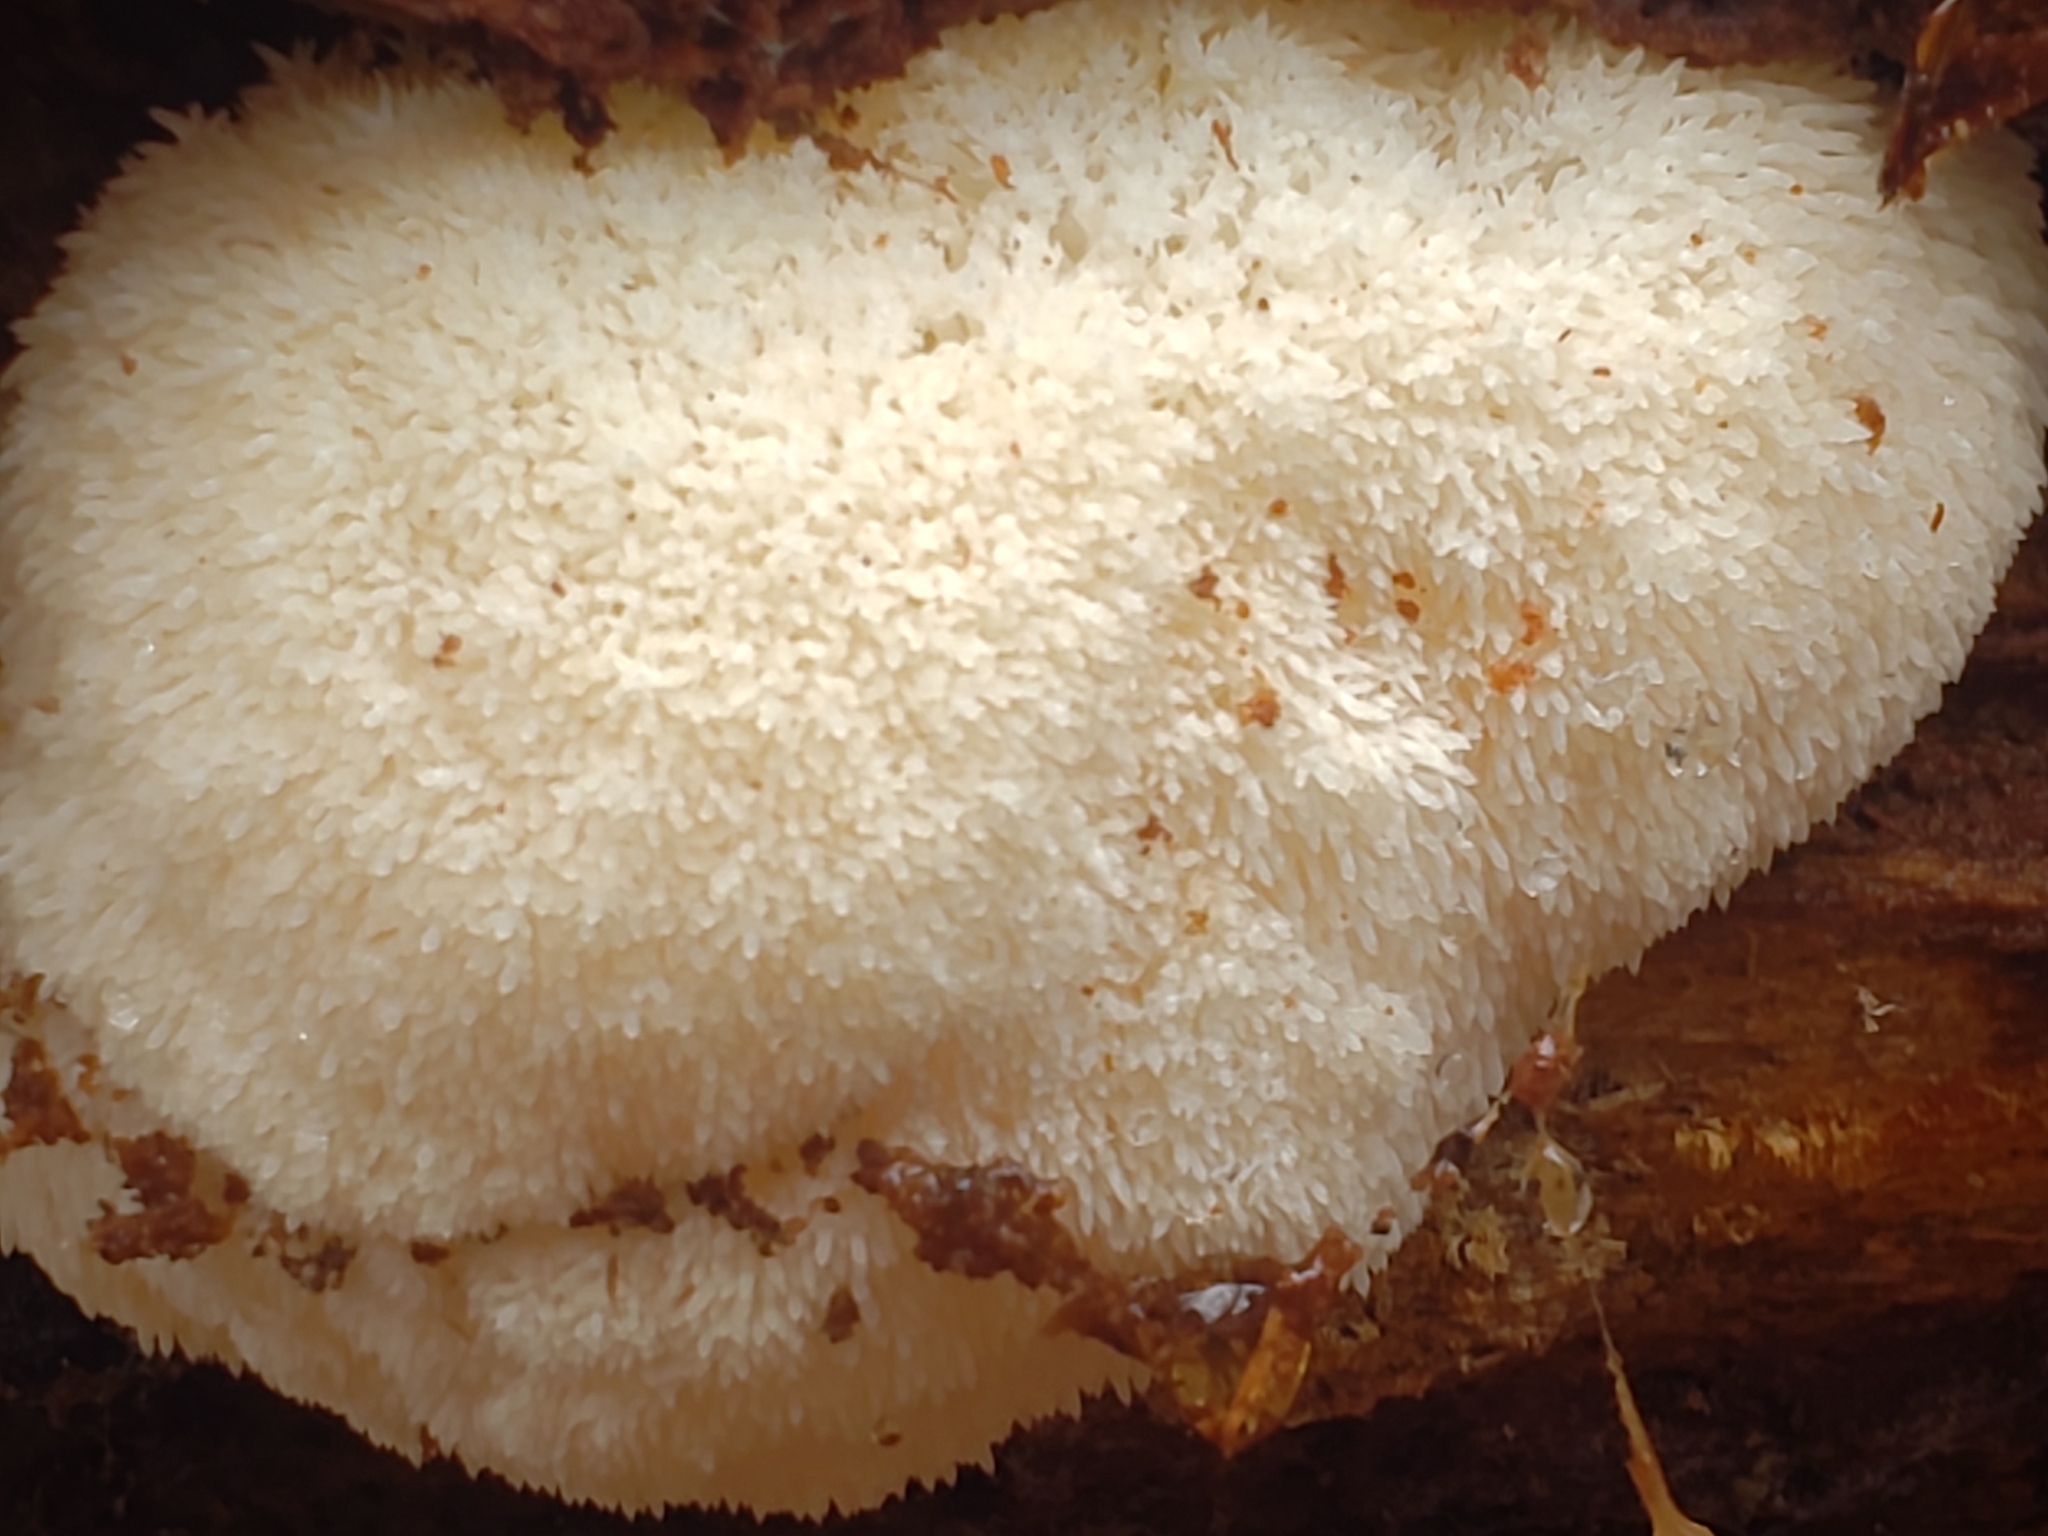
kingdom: Fungi
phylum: Basidiomycota
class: Agaricomycetes
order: Russulales
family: Hericiaceae
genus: Hericium
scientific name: Hericium erinaceus
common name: Bearded tooth
